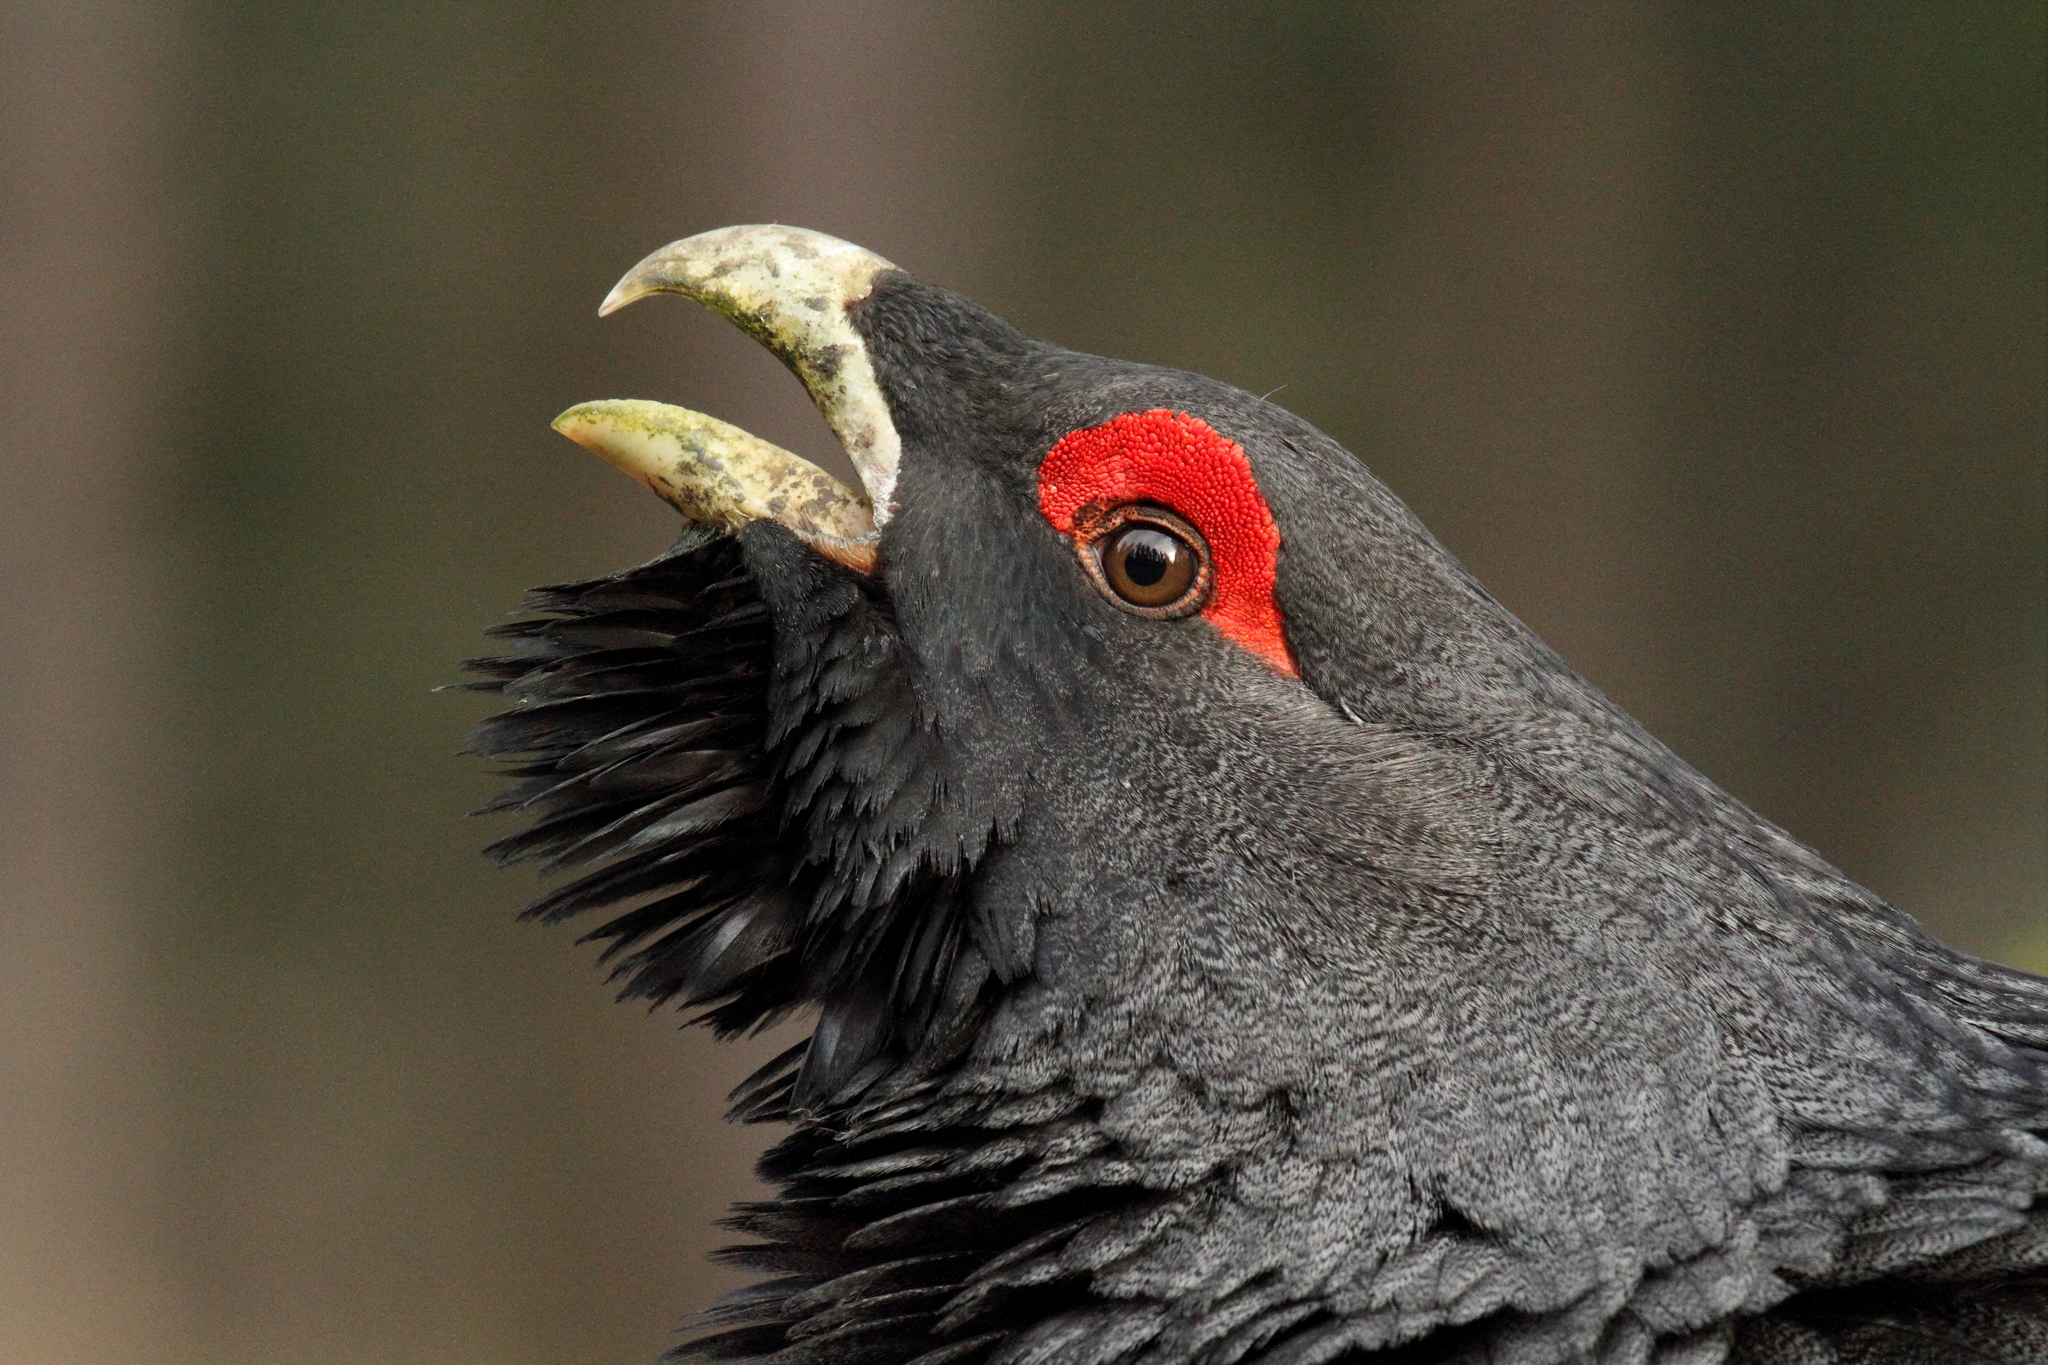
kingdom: Animalia
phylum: Chordata
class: Aves
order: Galliformes
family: Phasianidae
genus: Tetrao
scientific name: Tetrao urogallus
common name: Western capercaillie
